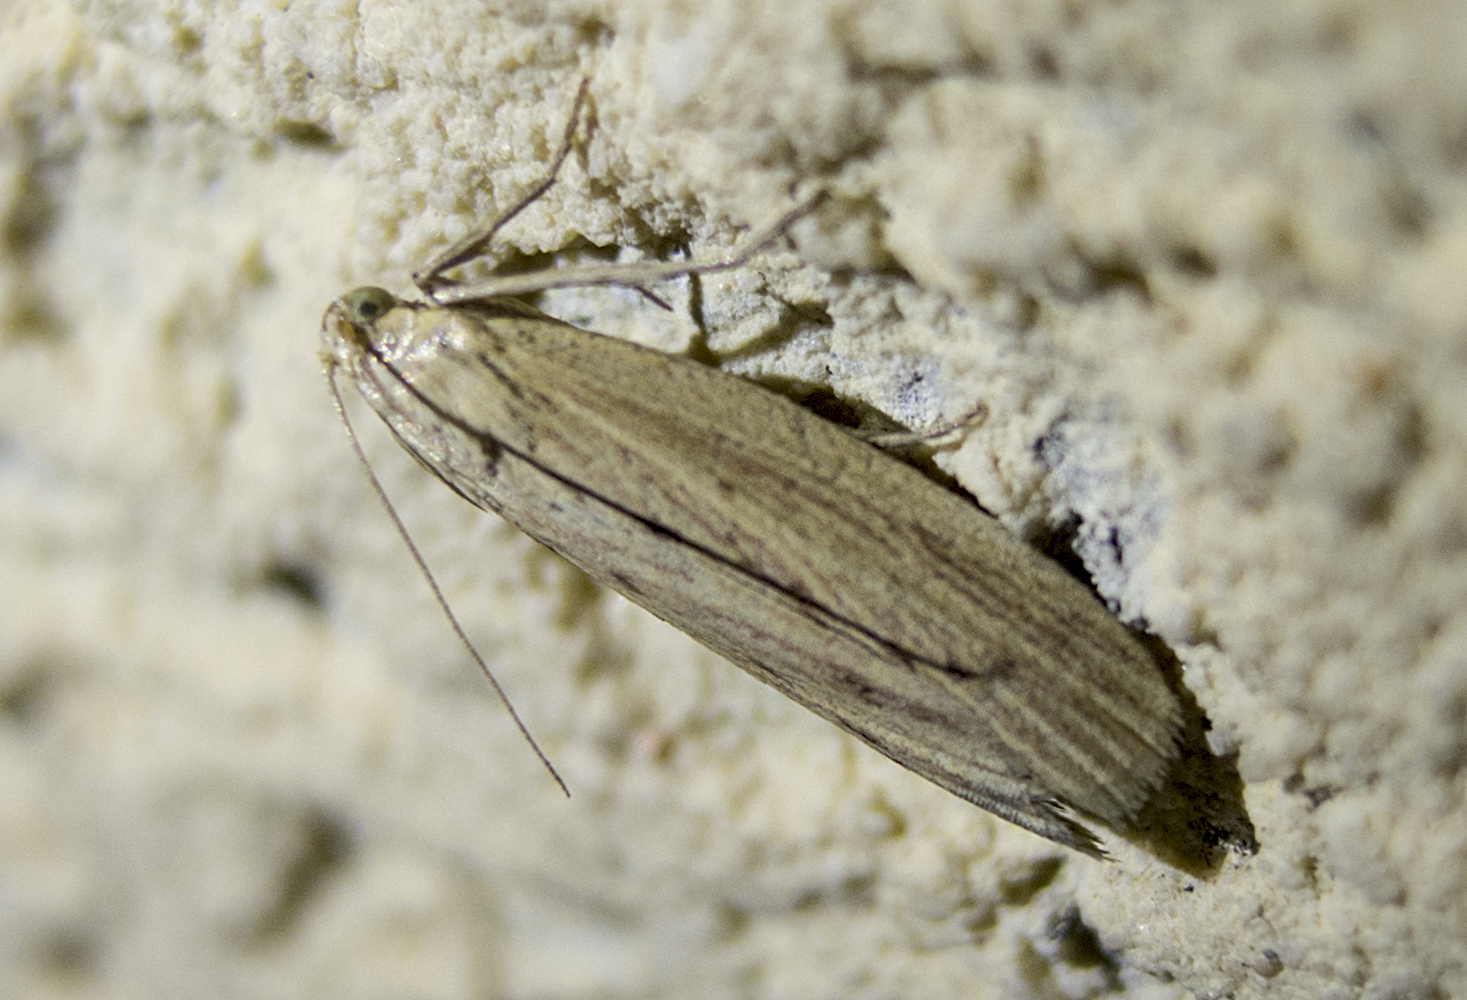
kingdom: Animalia
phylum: Arthropoda
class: Insecta
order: Lepidoptera
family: Pyralidae
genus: Ematheudes
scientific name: Ematheudes punctellus
